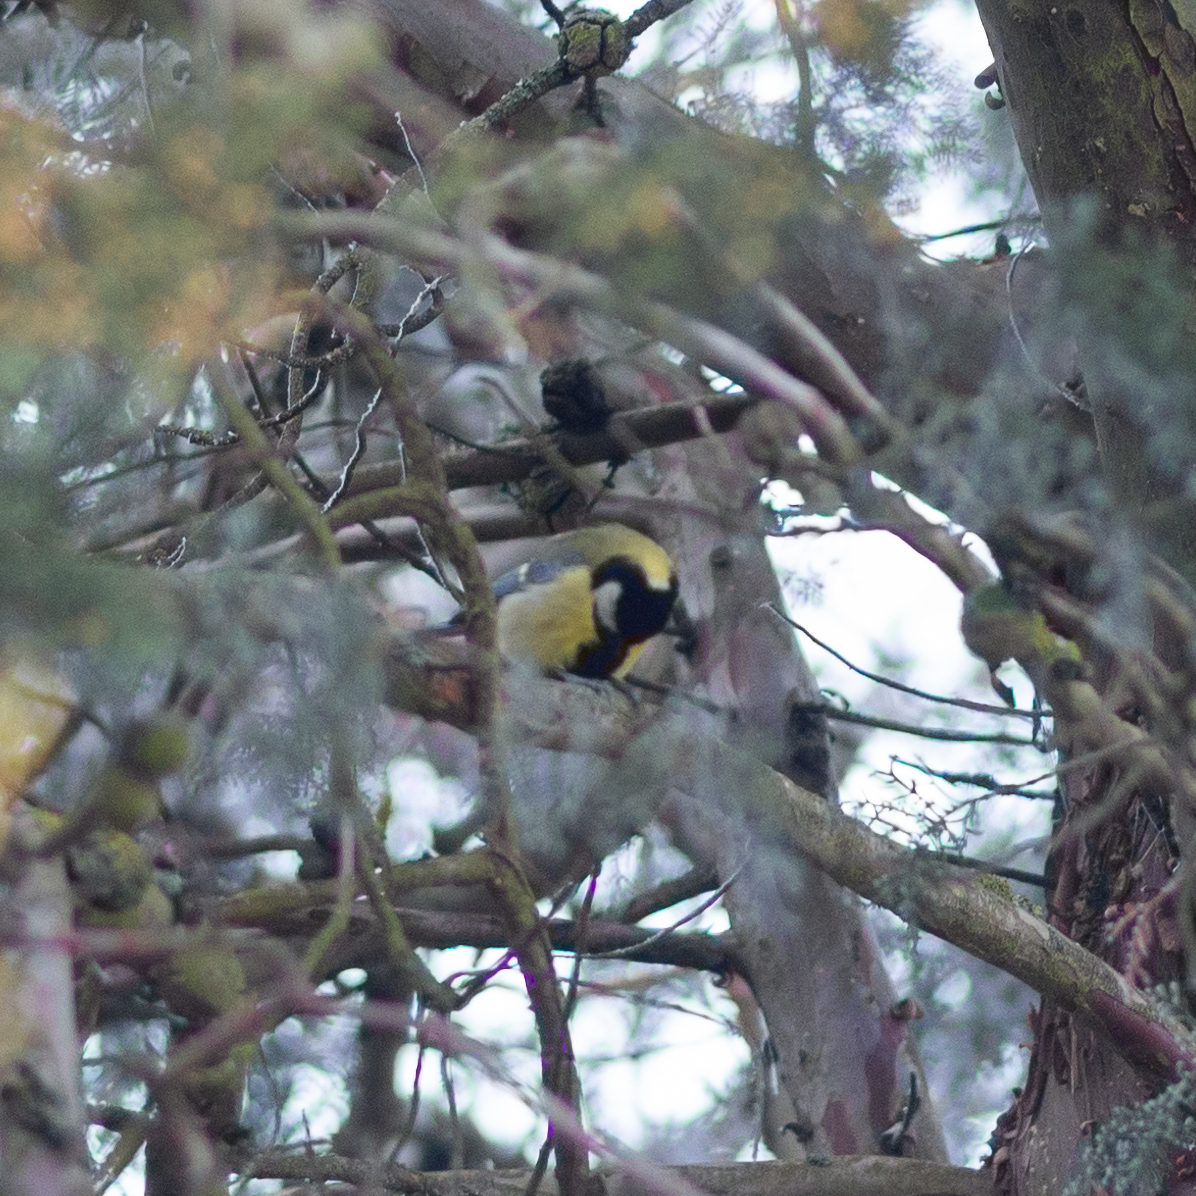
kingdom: Animalia
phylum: Chordata
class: Aves
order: Passeriformes
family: Paridae
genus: Parus
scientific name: Parus major
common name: Great tit
